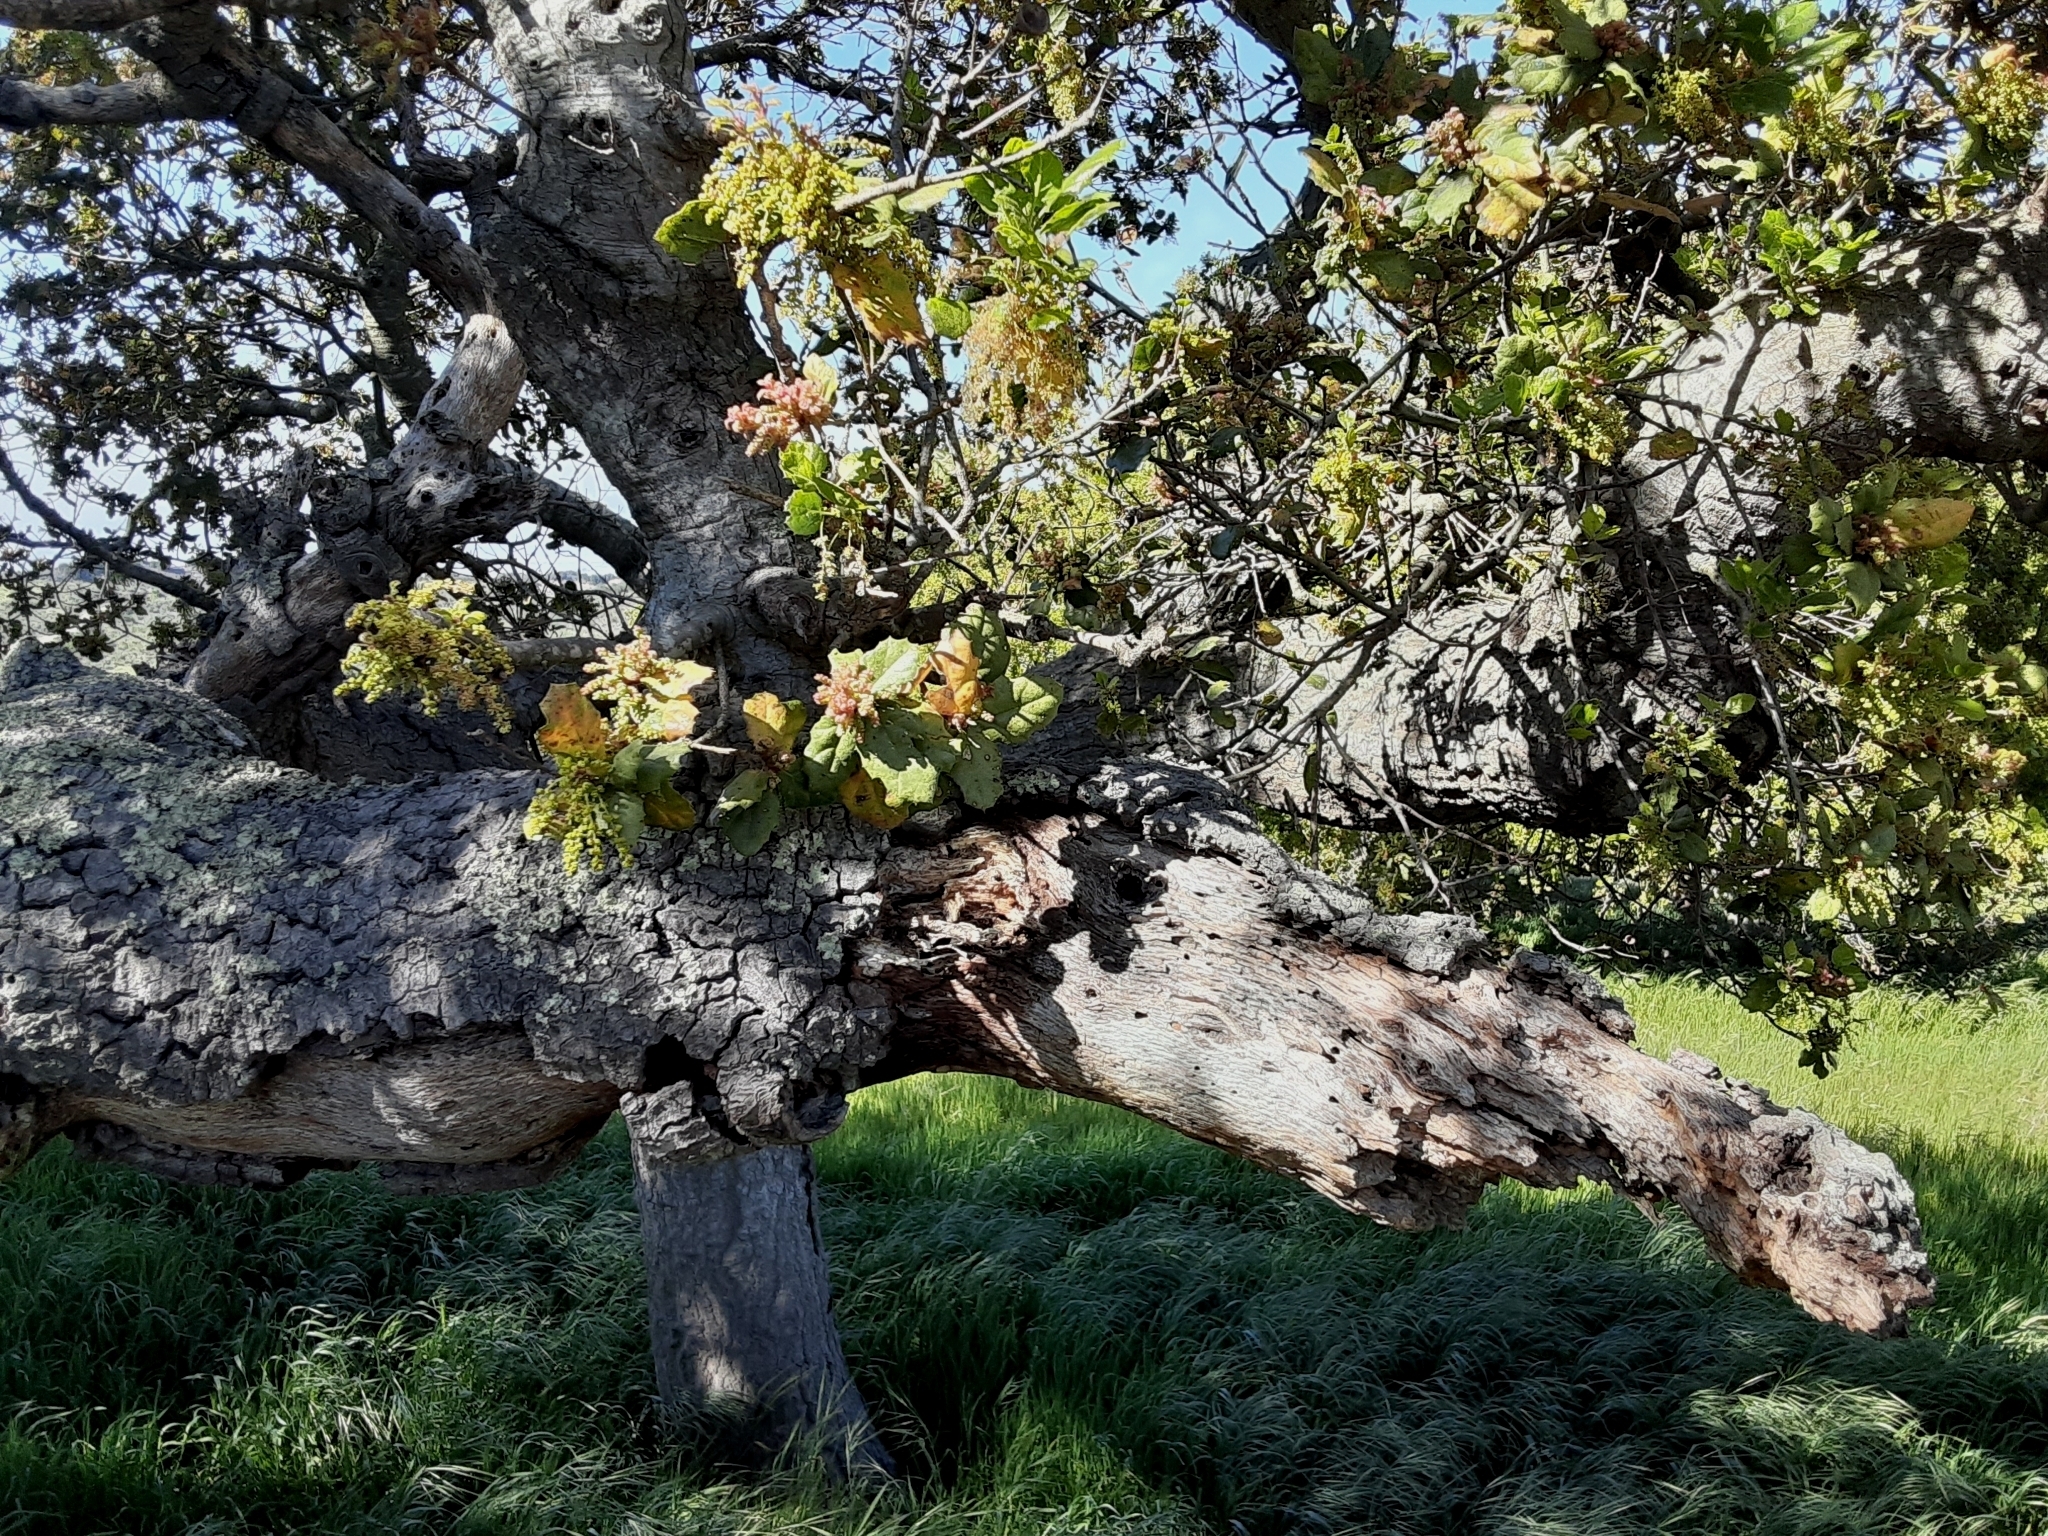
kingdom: Plantae
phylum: Tracheophyta
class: Magnoliopsida
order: Fagales
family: Fagaceae
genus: Quercus
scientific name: Quercus agrifolia
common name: California live oak
